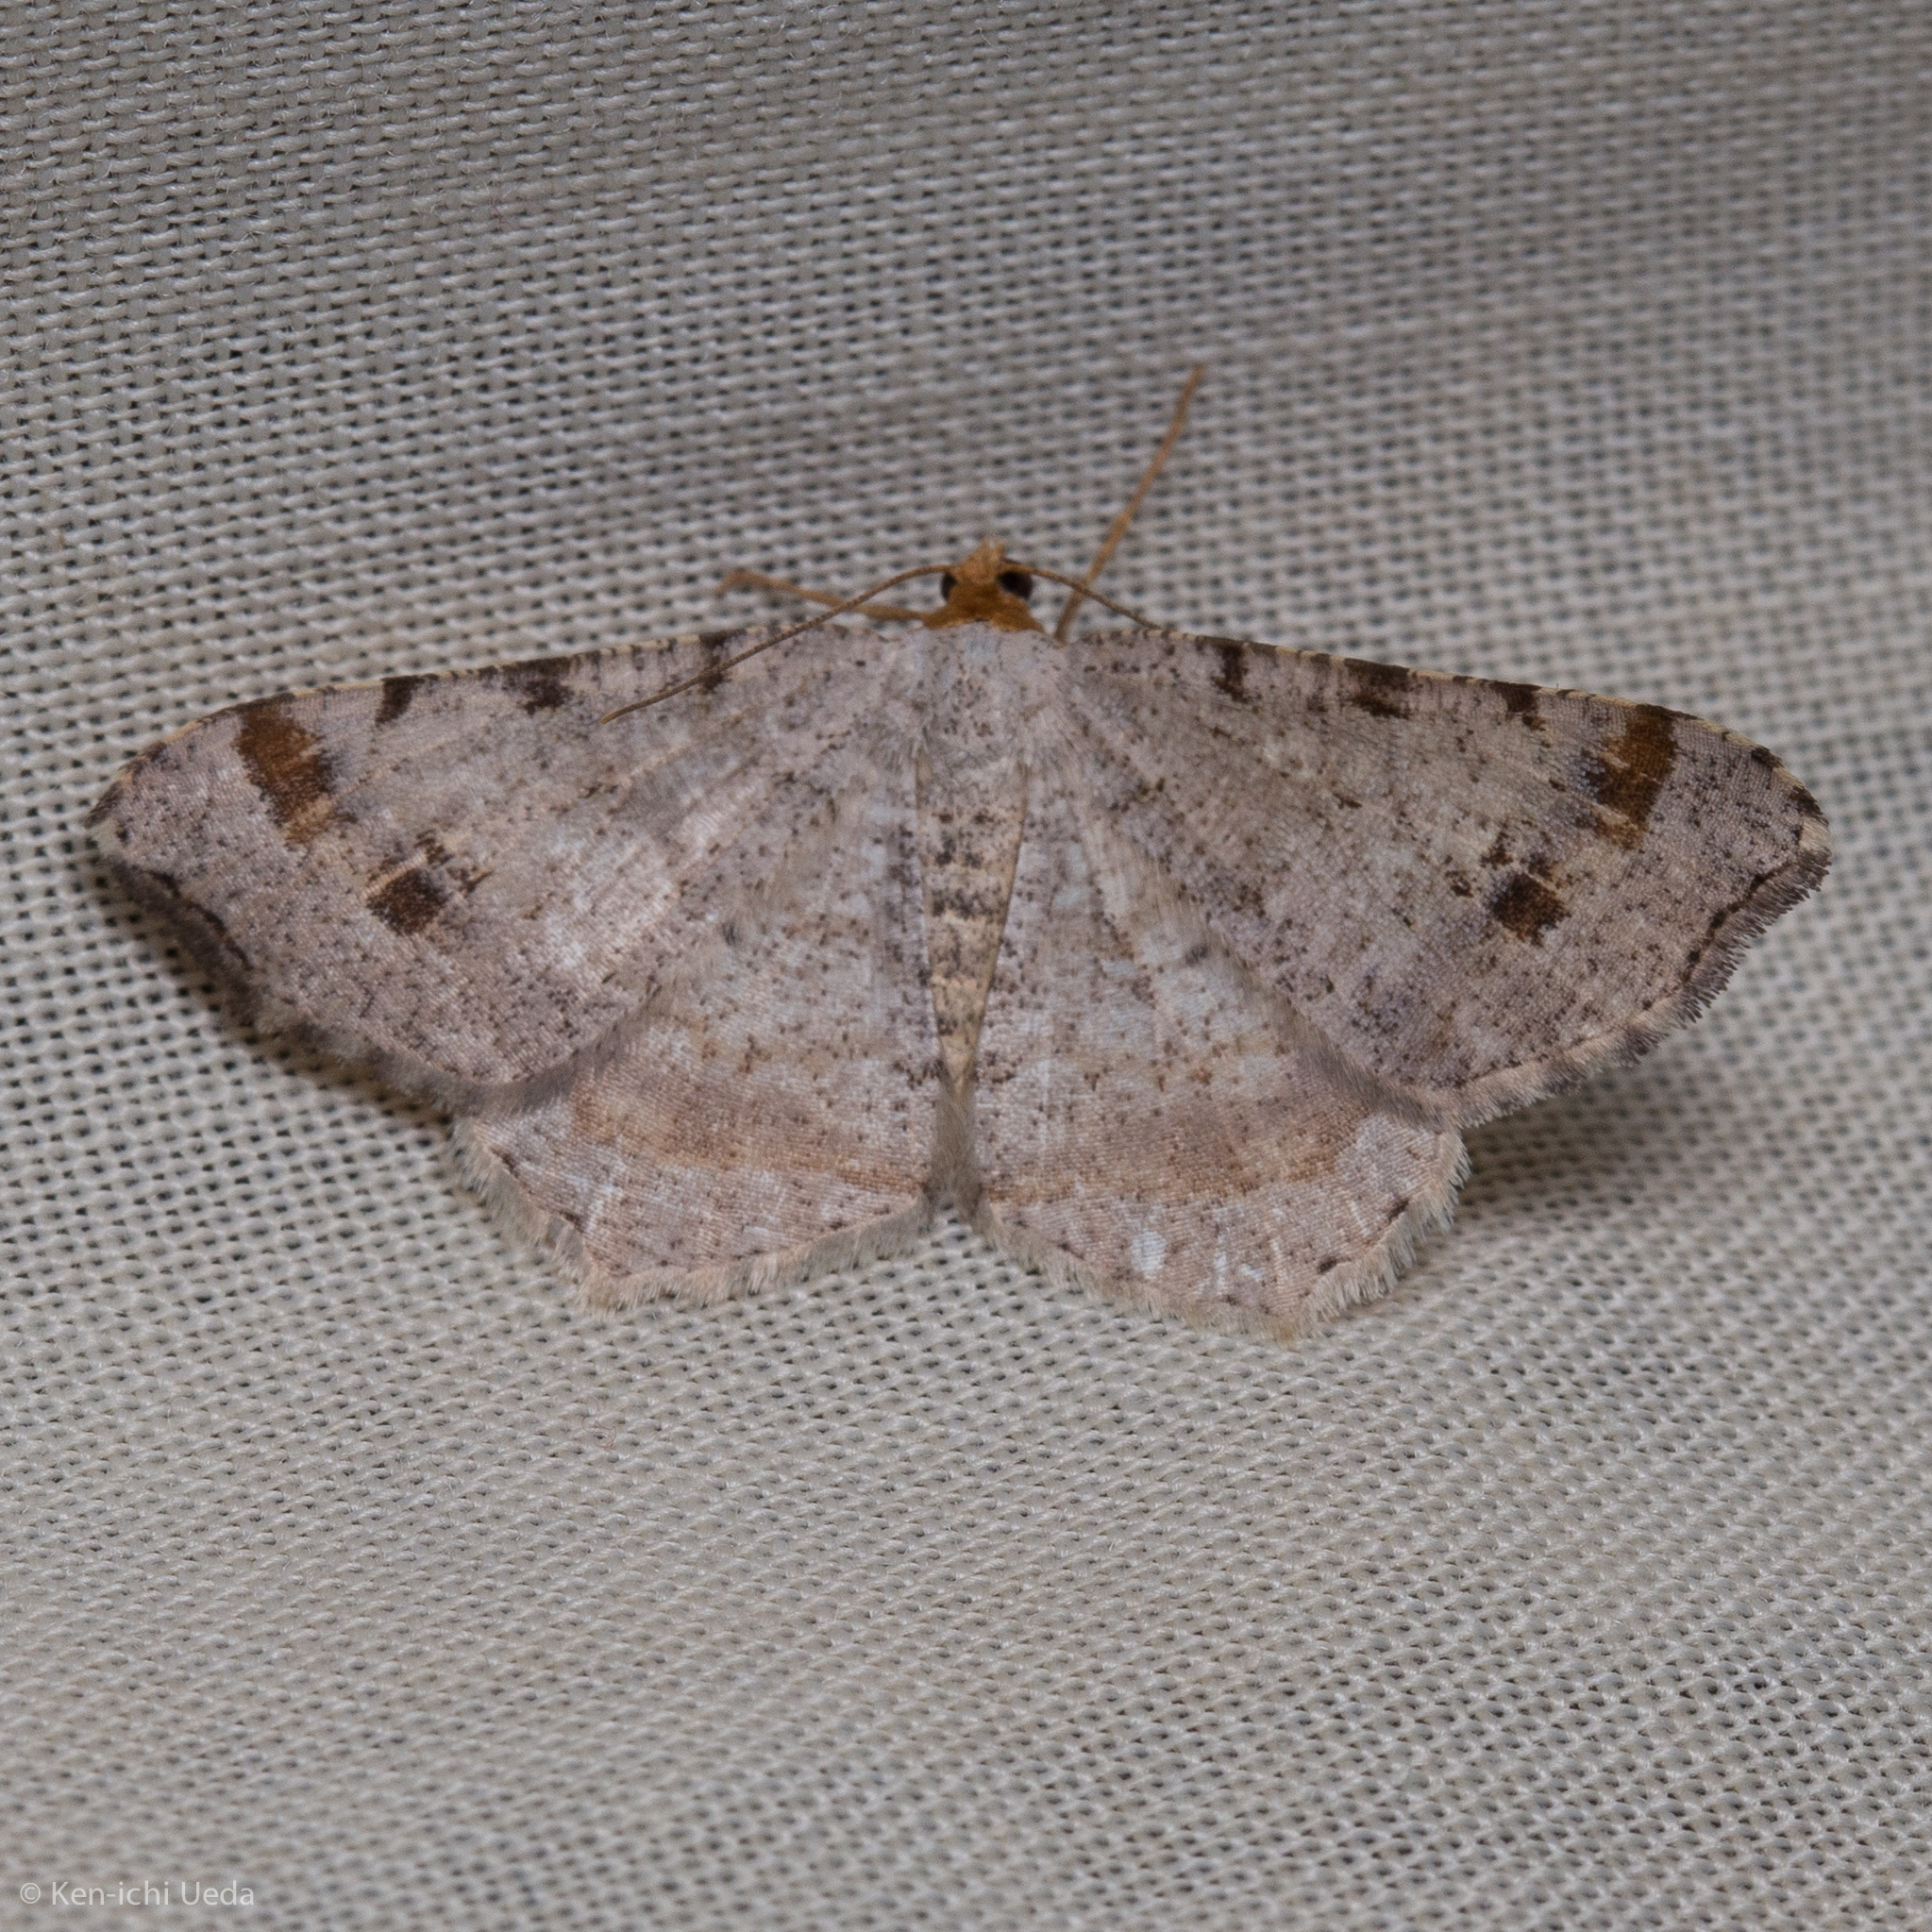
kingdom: Animalia
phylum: Arthropoda
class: Insecta
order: Lepidoptera
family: Geometridae
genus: Macaria
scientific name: Macaria bisignata
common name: Red-headed inchworm
